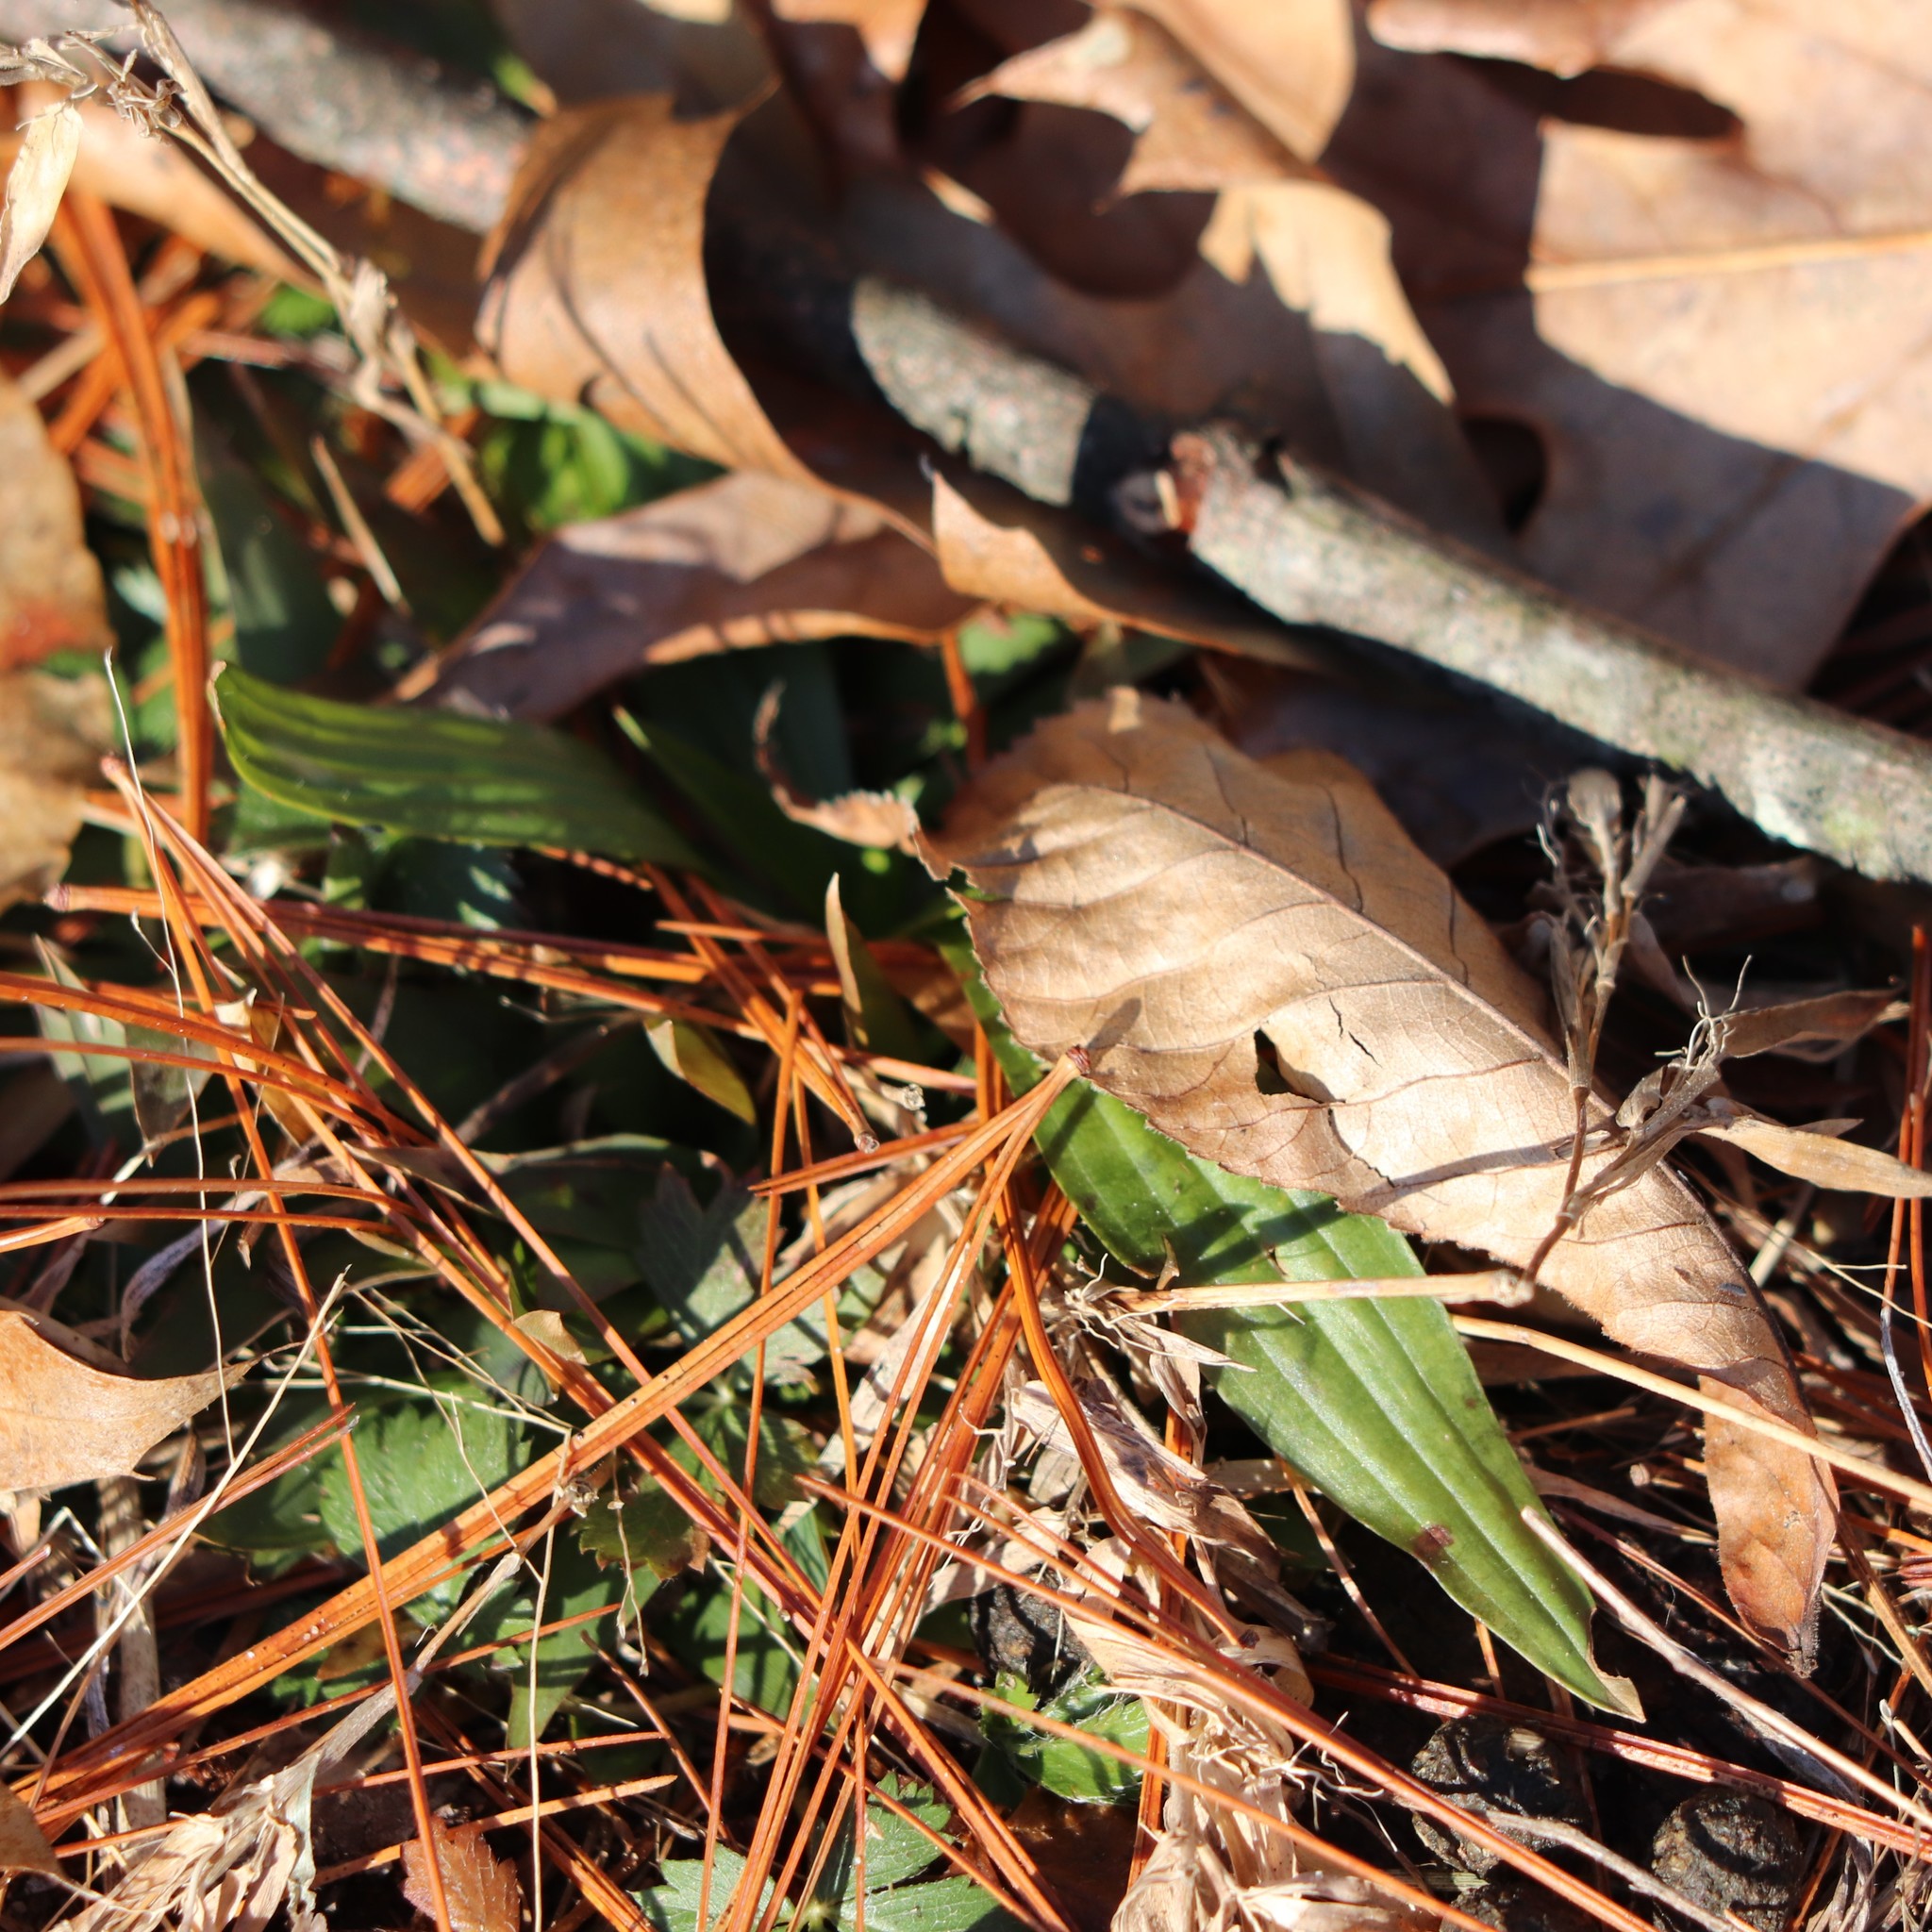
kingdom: Plantae
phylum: Tracheophyta
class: Magnoliopsida
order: Lamiales
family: Plantaginaceae
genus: Plantago
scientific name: Plantago lanceolata
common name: Ribwort plantain
